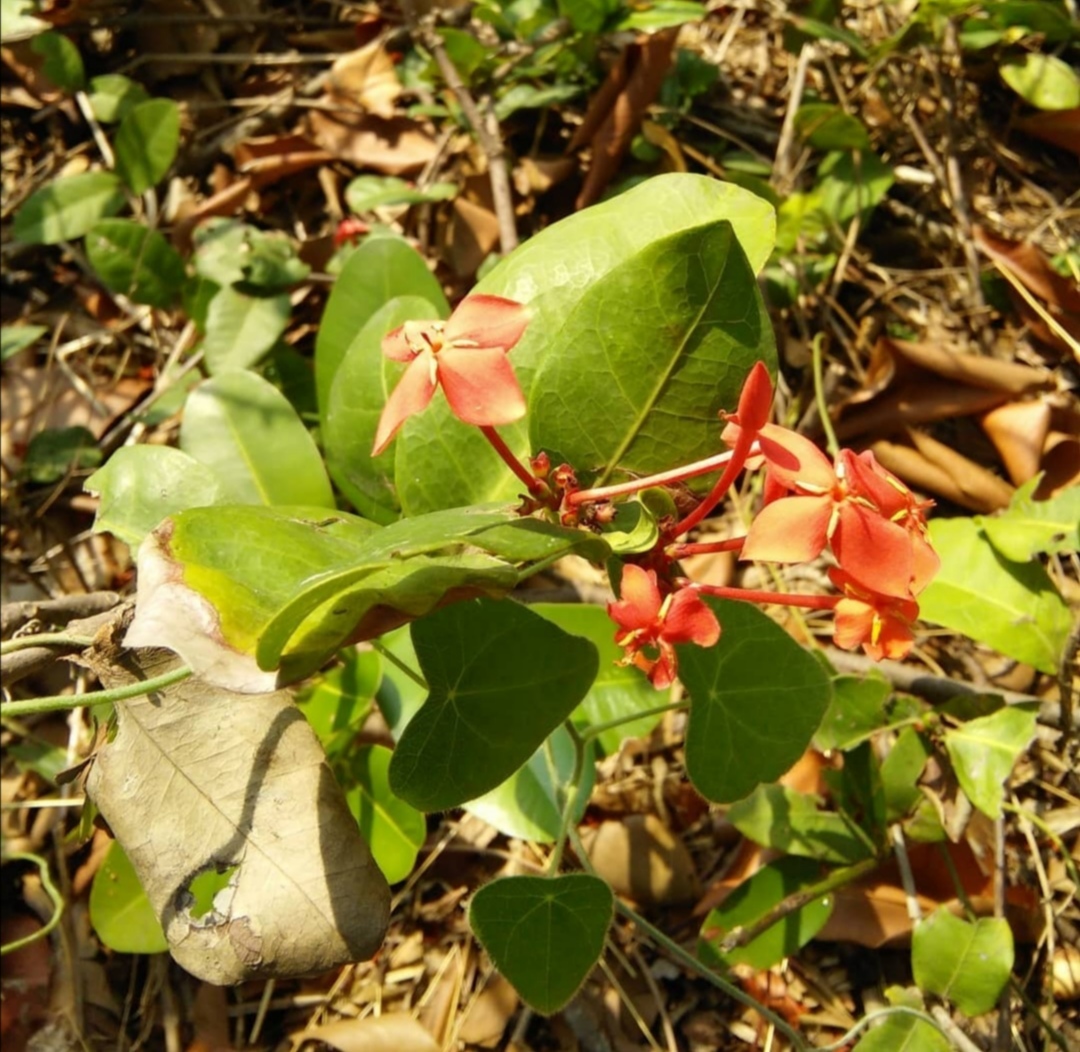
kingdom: Plantae
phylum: Tracheophyta
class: Magnoliopsida
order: Gentianales
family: Rubiaceae
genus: Ixora
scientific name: Ixora coccinea
